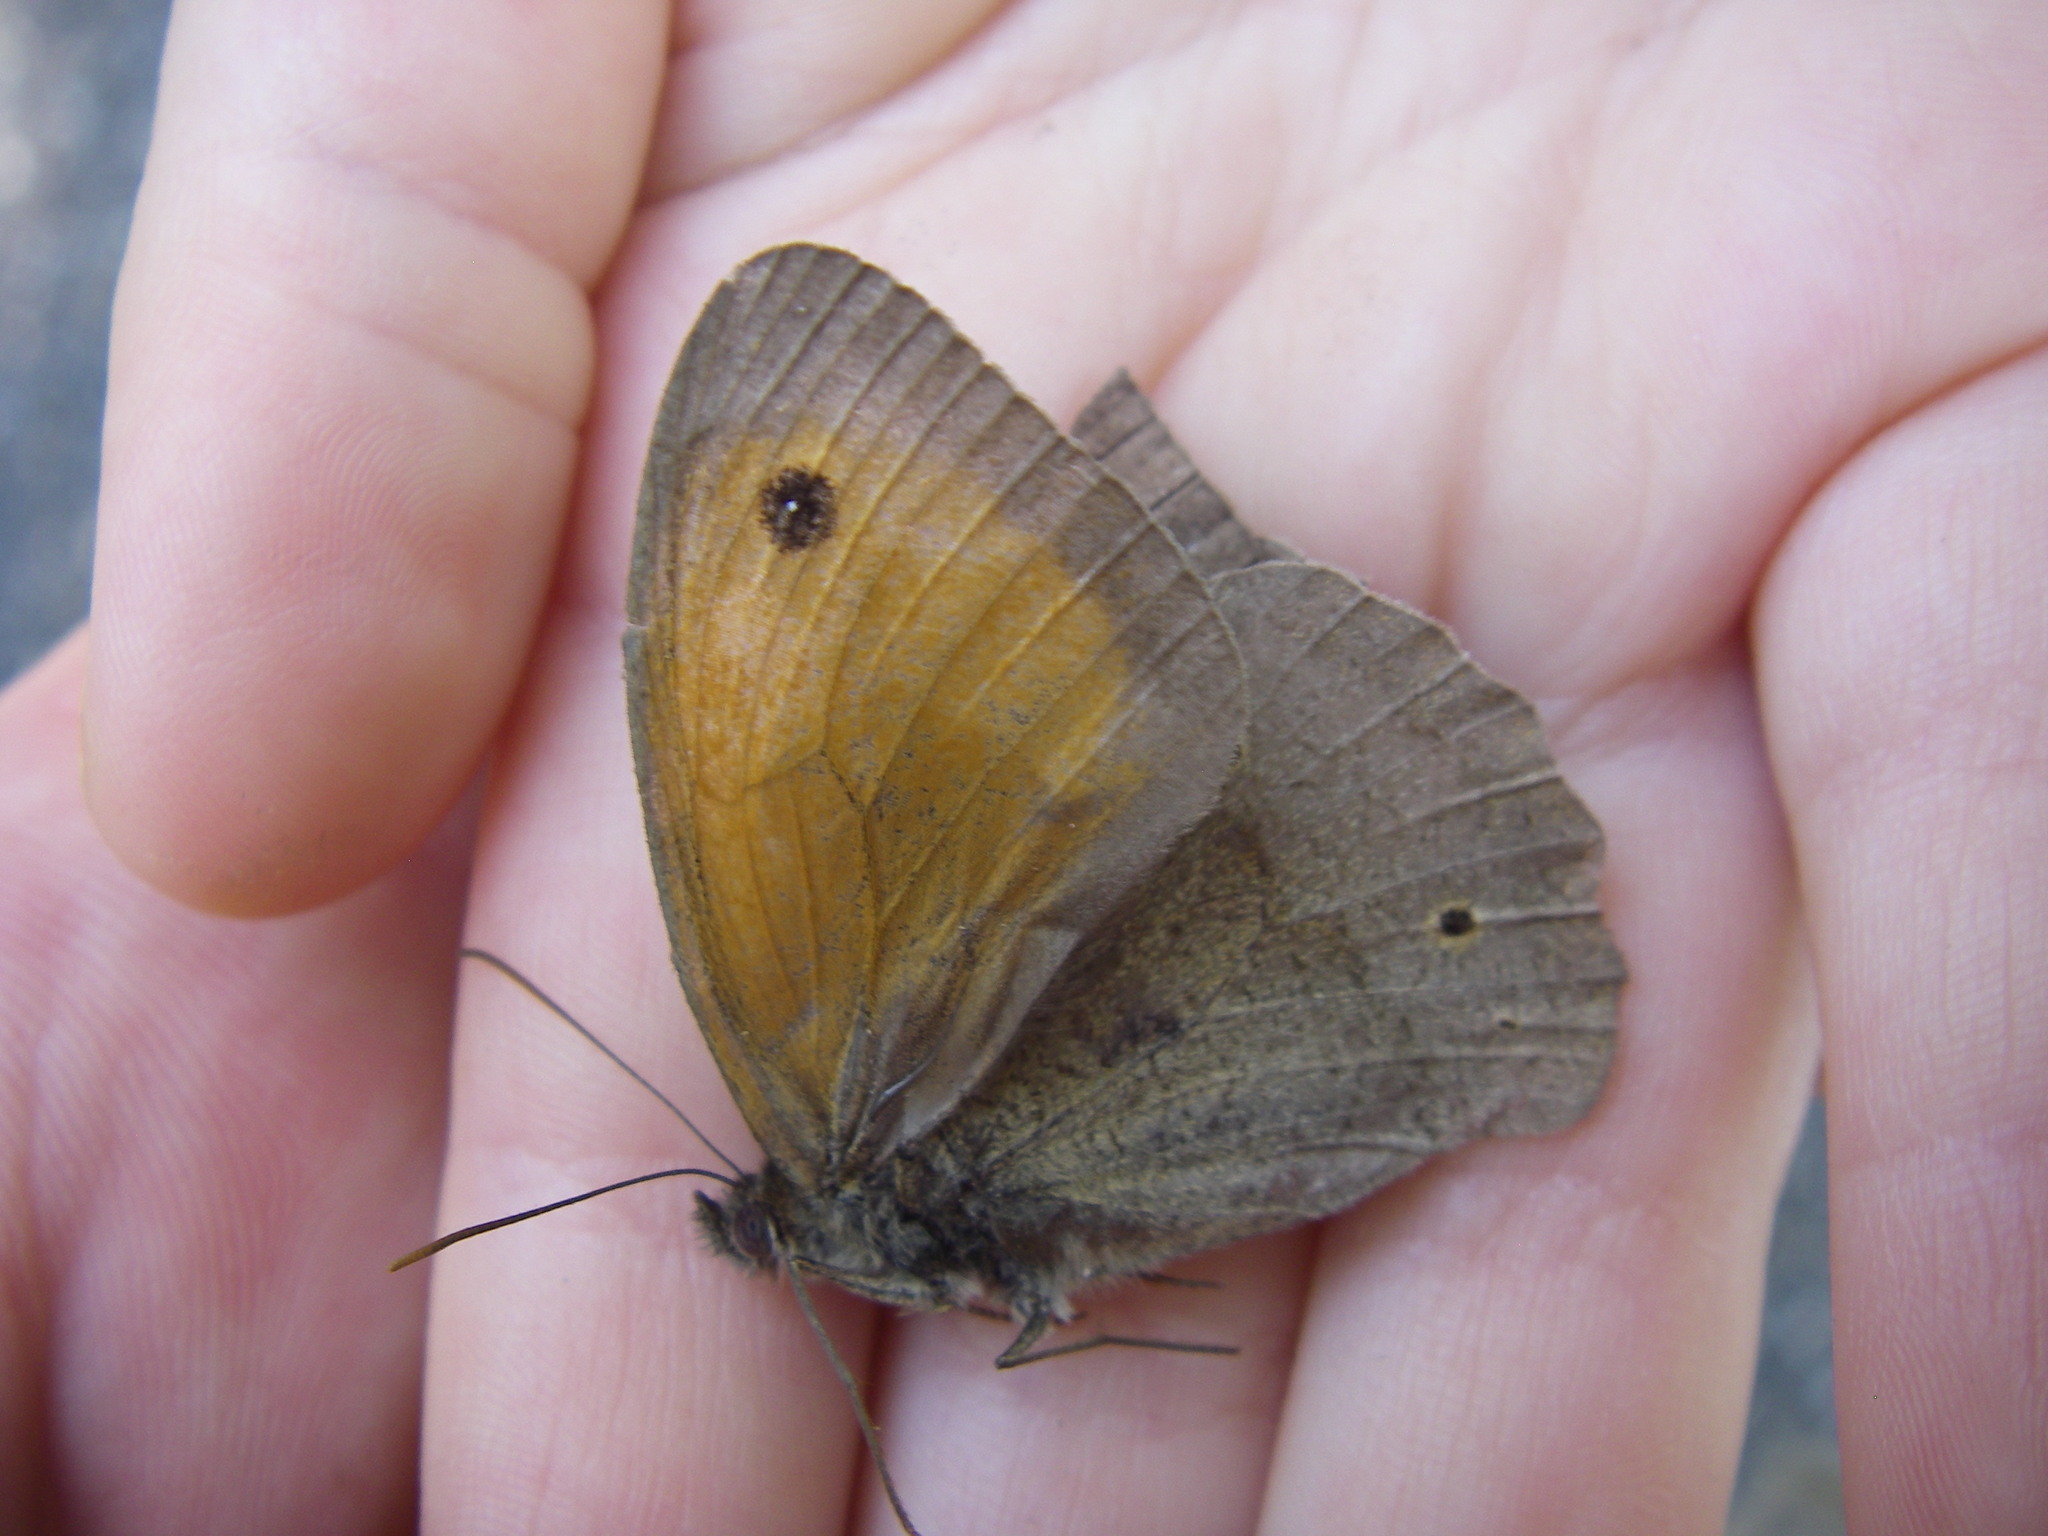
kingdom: Animalia
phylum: Arthropoda
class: Insecta
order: Lepidoptera
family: Nymphalidae
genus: Maniola
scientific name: Maniola jurtina
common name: Meadow brown
